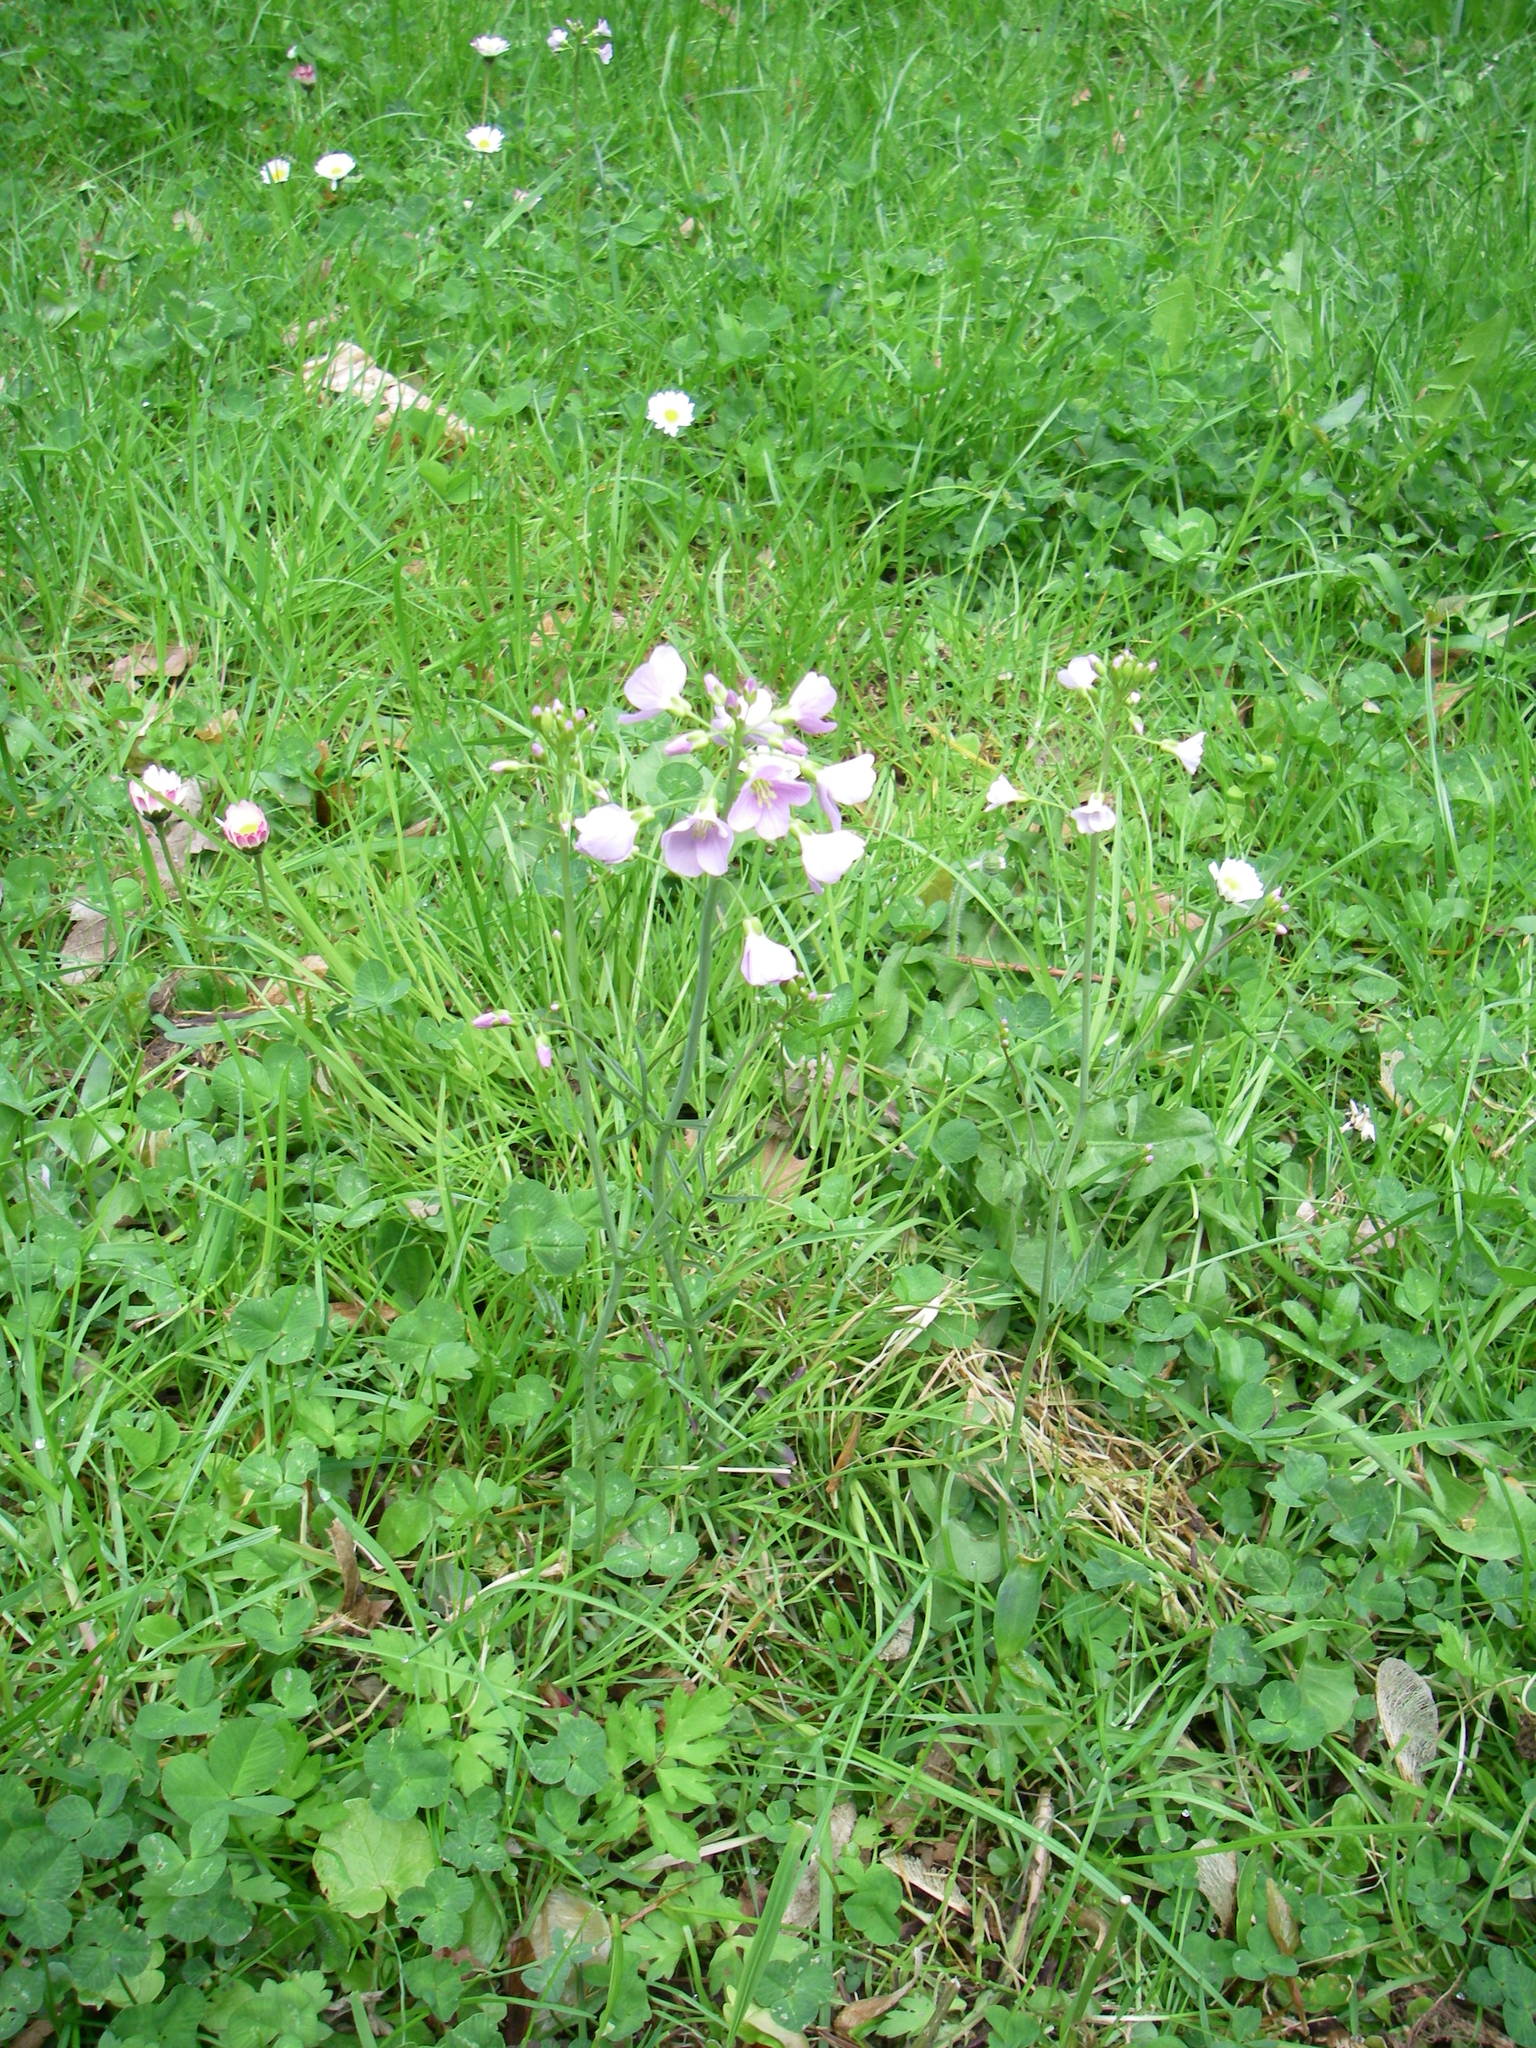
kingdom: Plantae
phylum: Tracheophyta
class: Magnoliopsida
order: Brassicales
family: Brassicaceae
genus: Cardamine
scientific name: Cardamine pratensis
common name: Cuckoo flower
